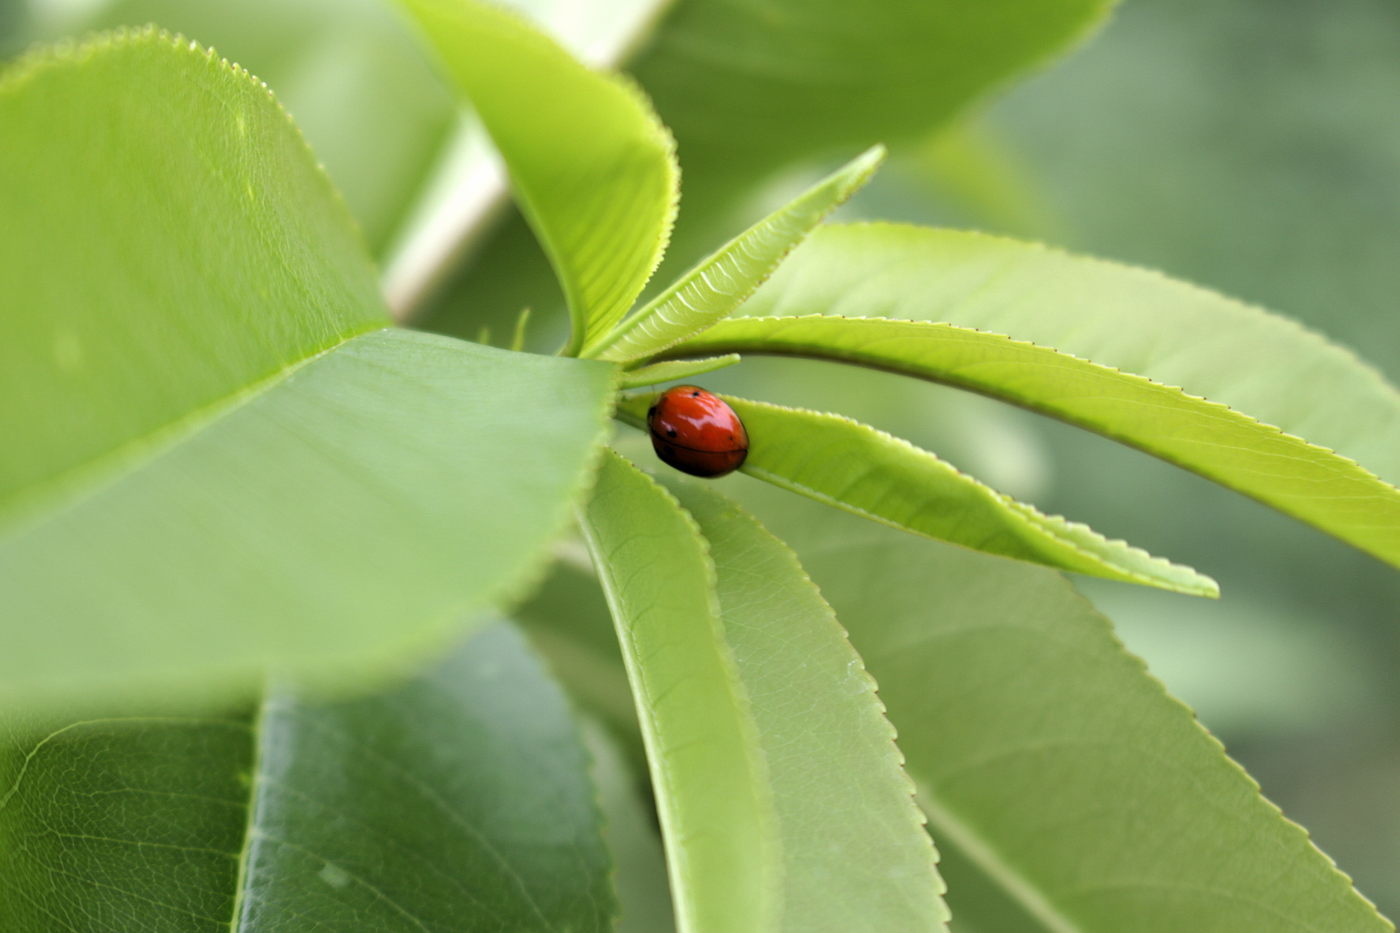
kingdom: Animalia
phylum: Arthropoda
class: Insecta
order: Coleoptera
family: Coccinellidae
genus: Harmonia
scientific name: Harmonia axyridis
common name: Harlequin ladybird
